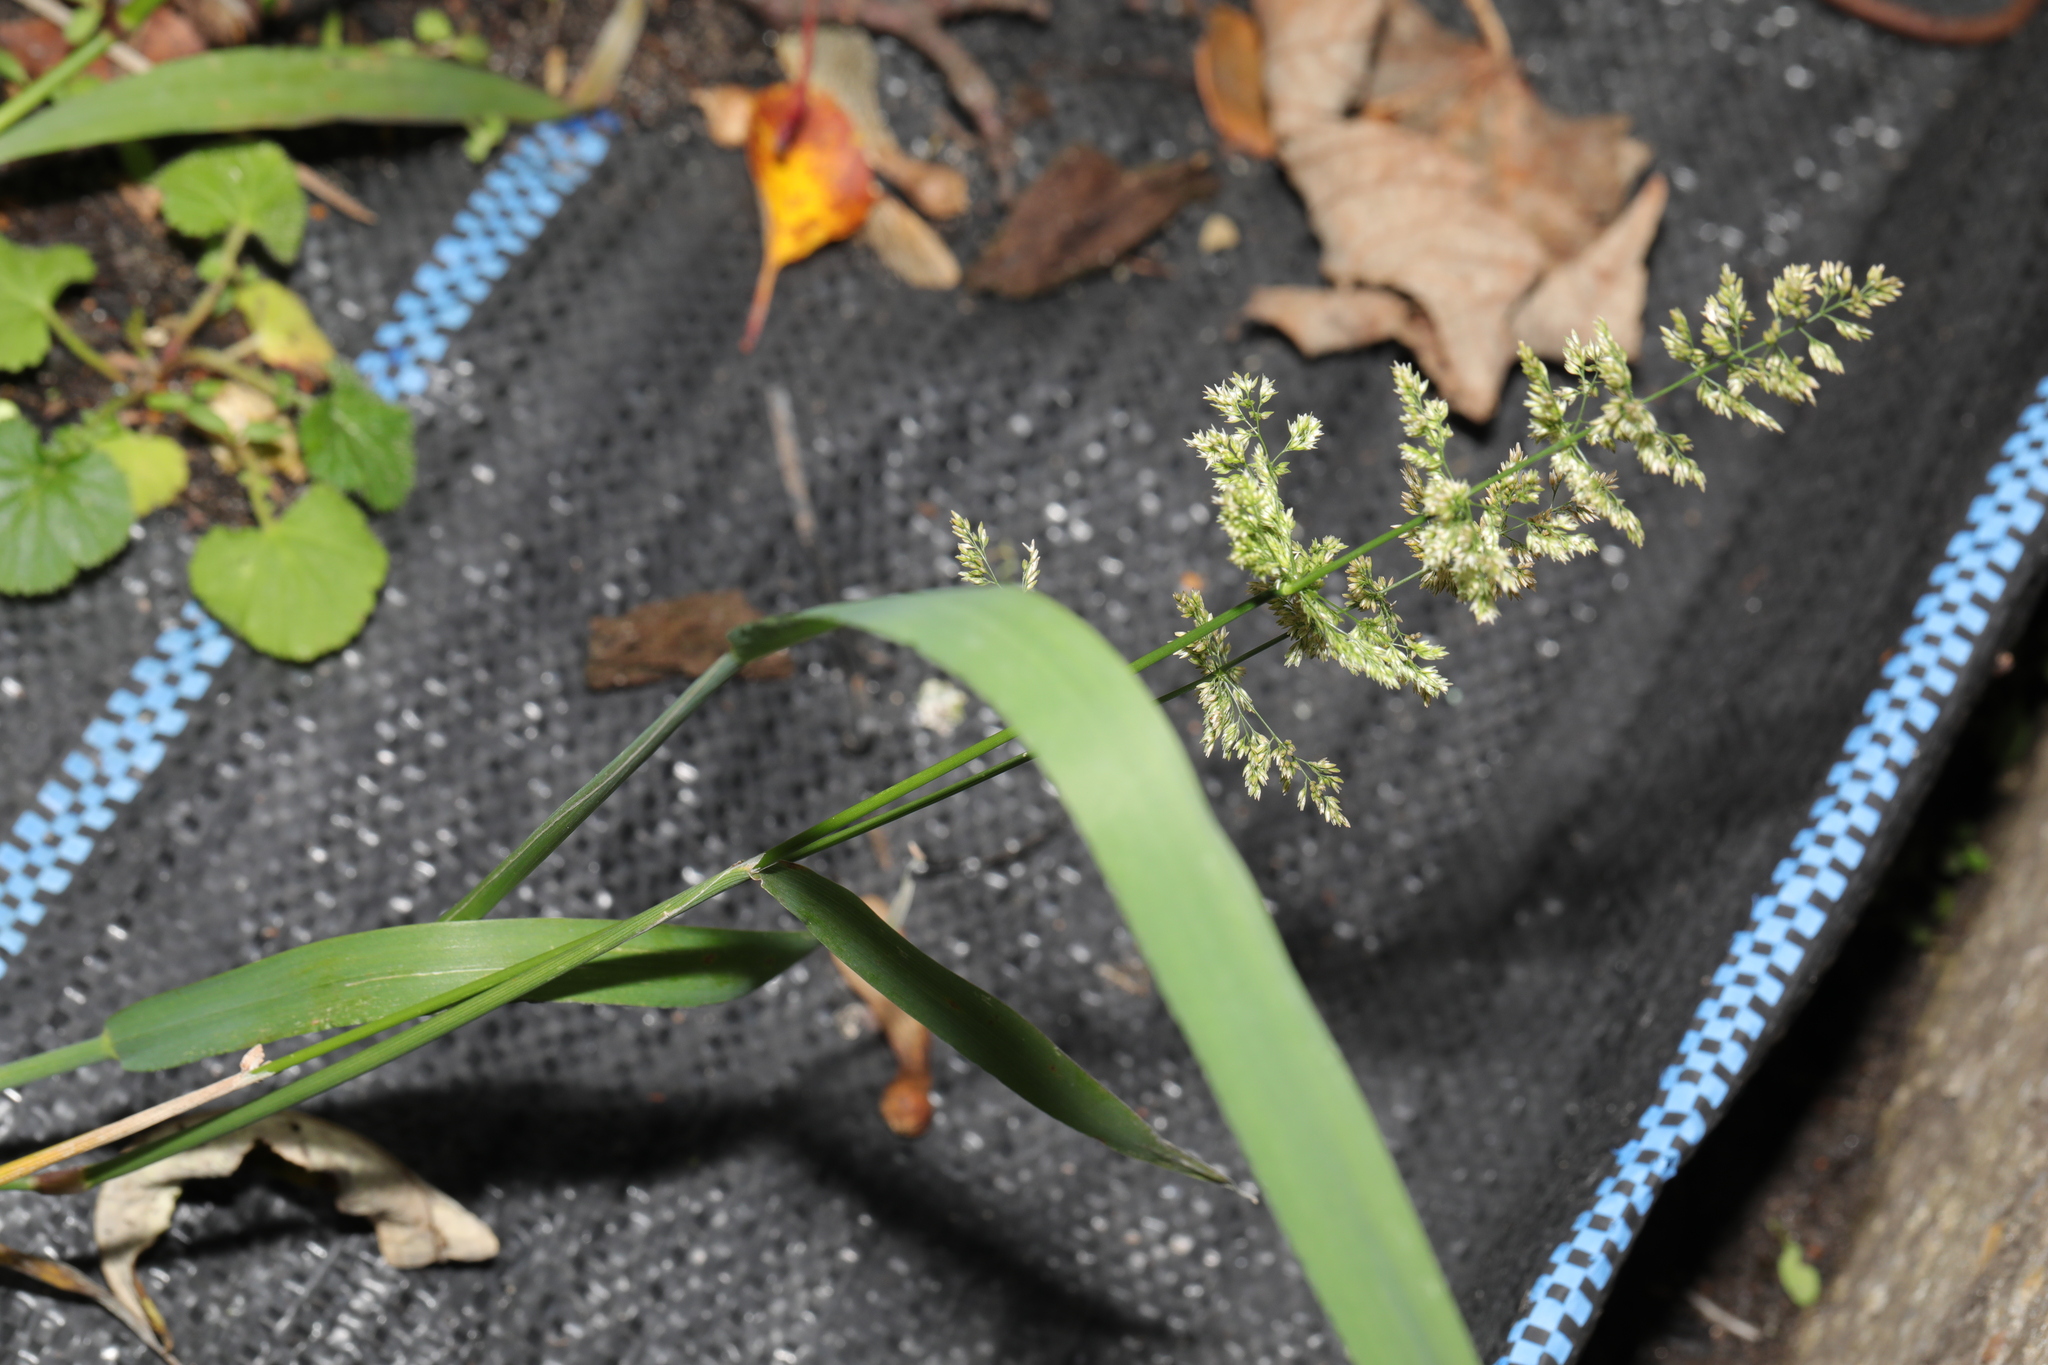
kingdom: Plantae
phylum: Tracheophyta
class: Liliopsida
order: Poales
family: Poaceae
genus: Polypogon
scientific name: Polypogon viridis
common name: Water bent
